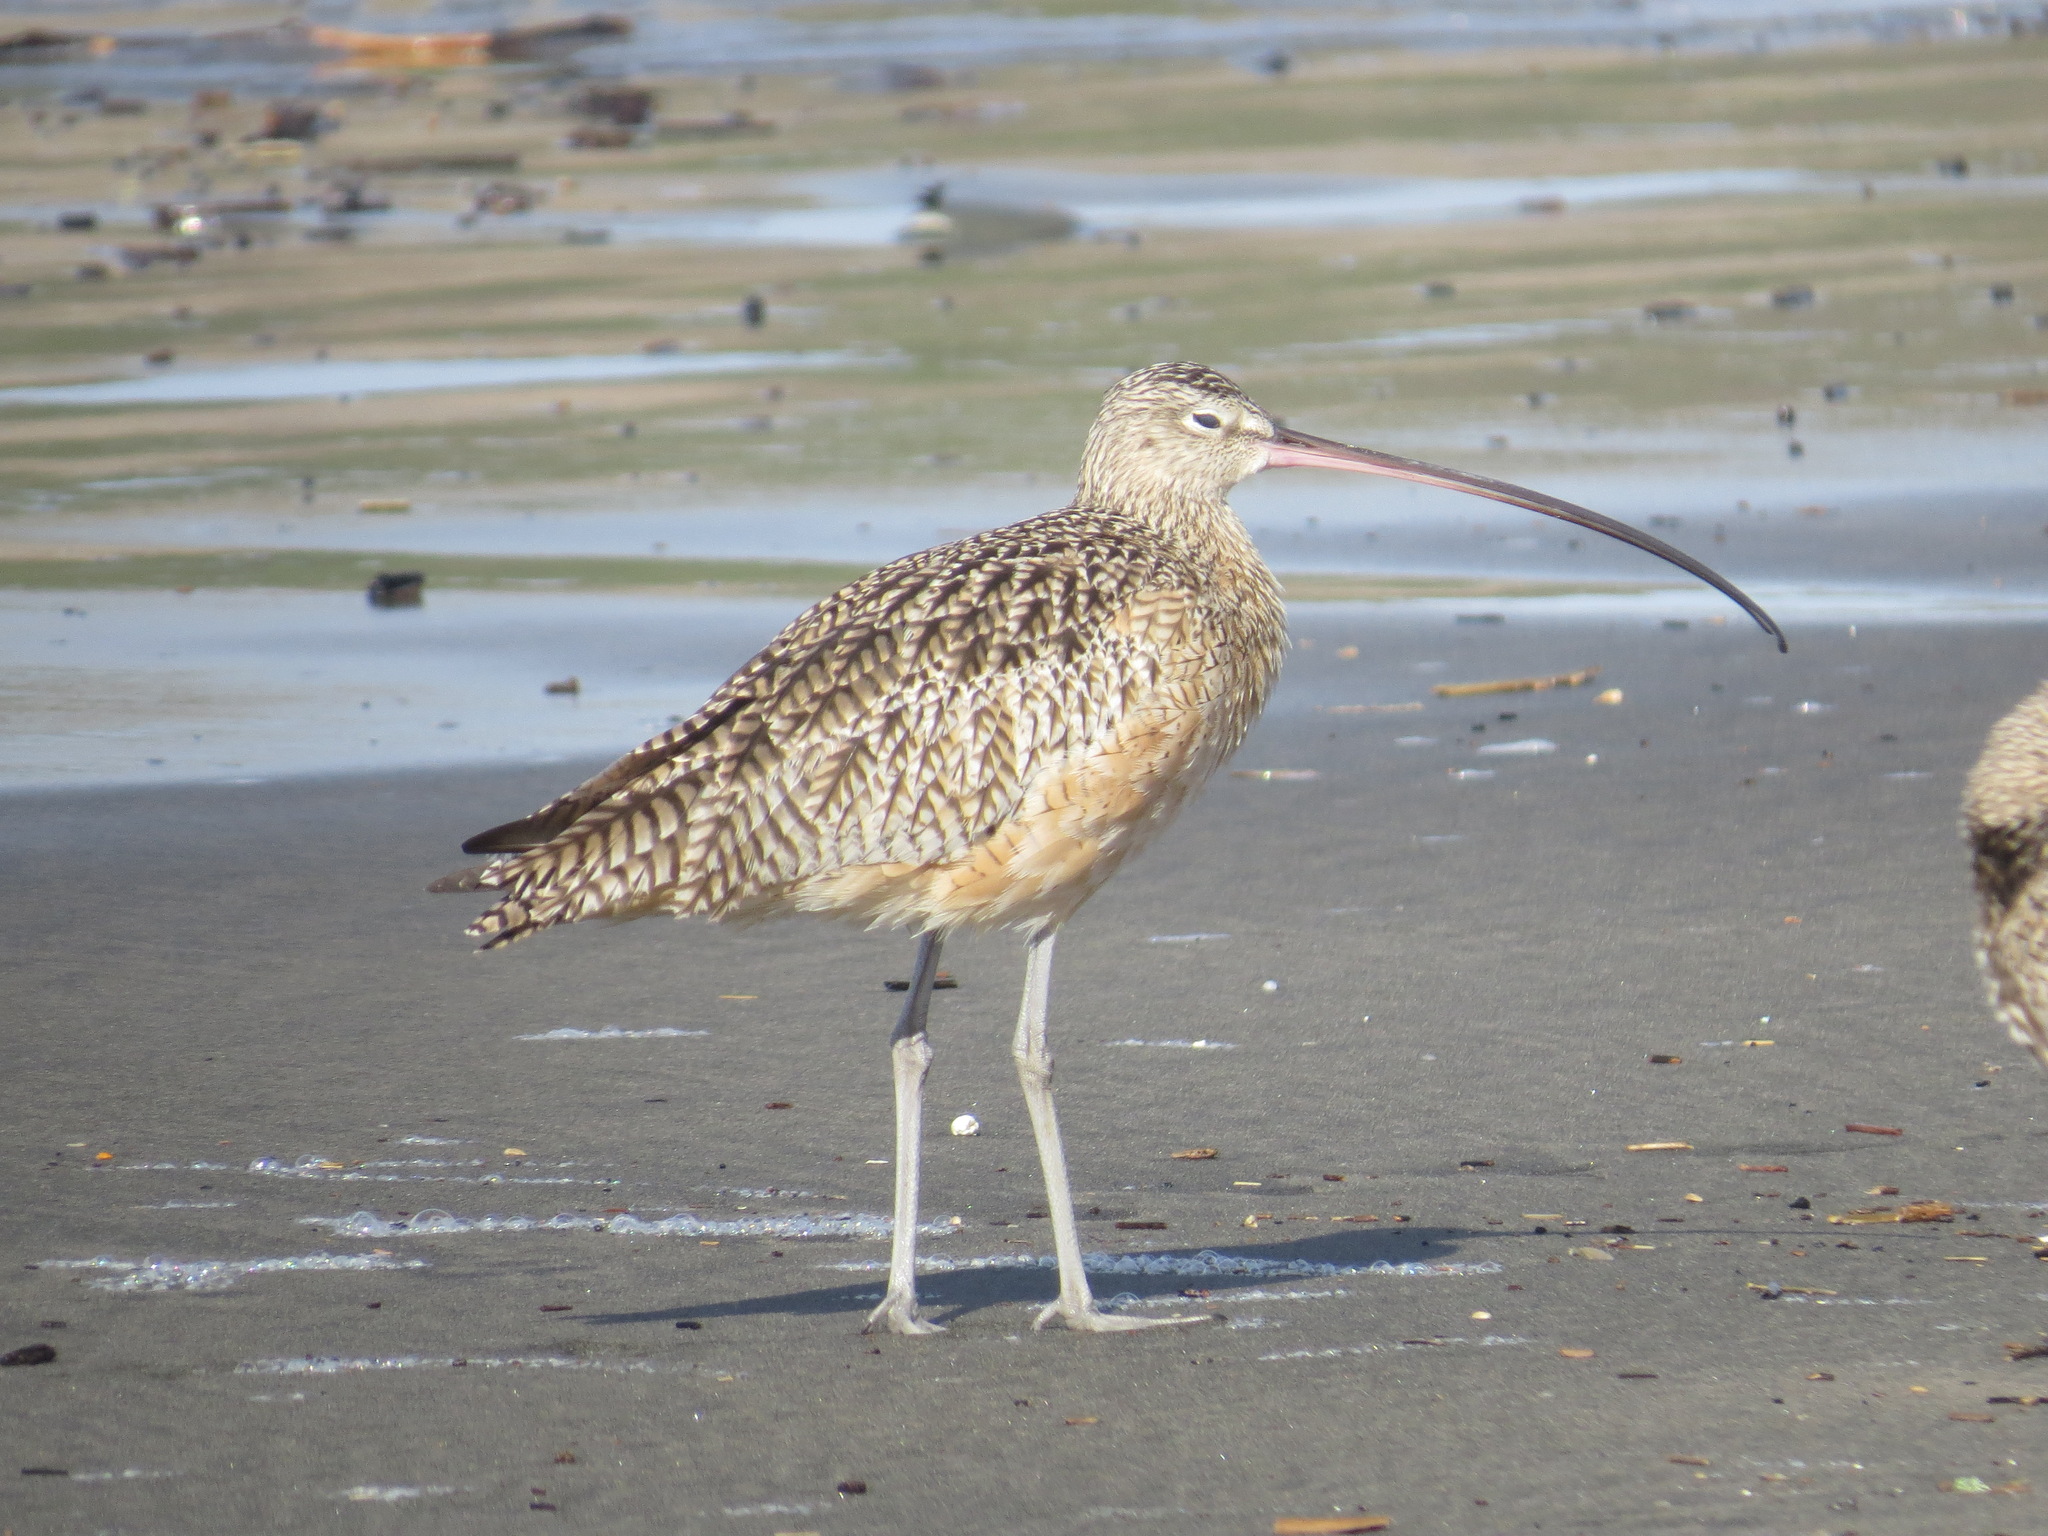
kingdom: Animalia
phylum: Chordata
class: Aves
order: Charadriiformes
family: Scolopacidae
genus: Numenius
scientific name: Numenius americanus
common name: Long-billed curlew
